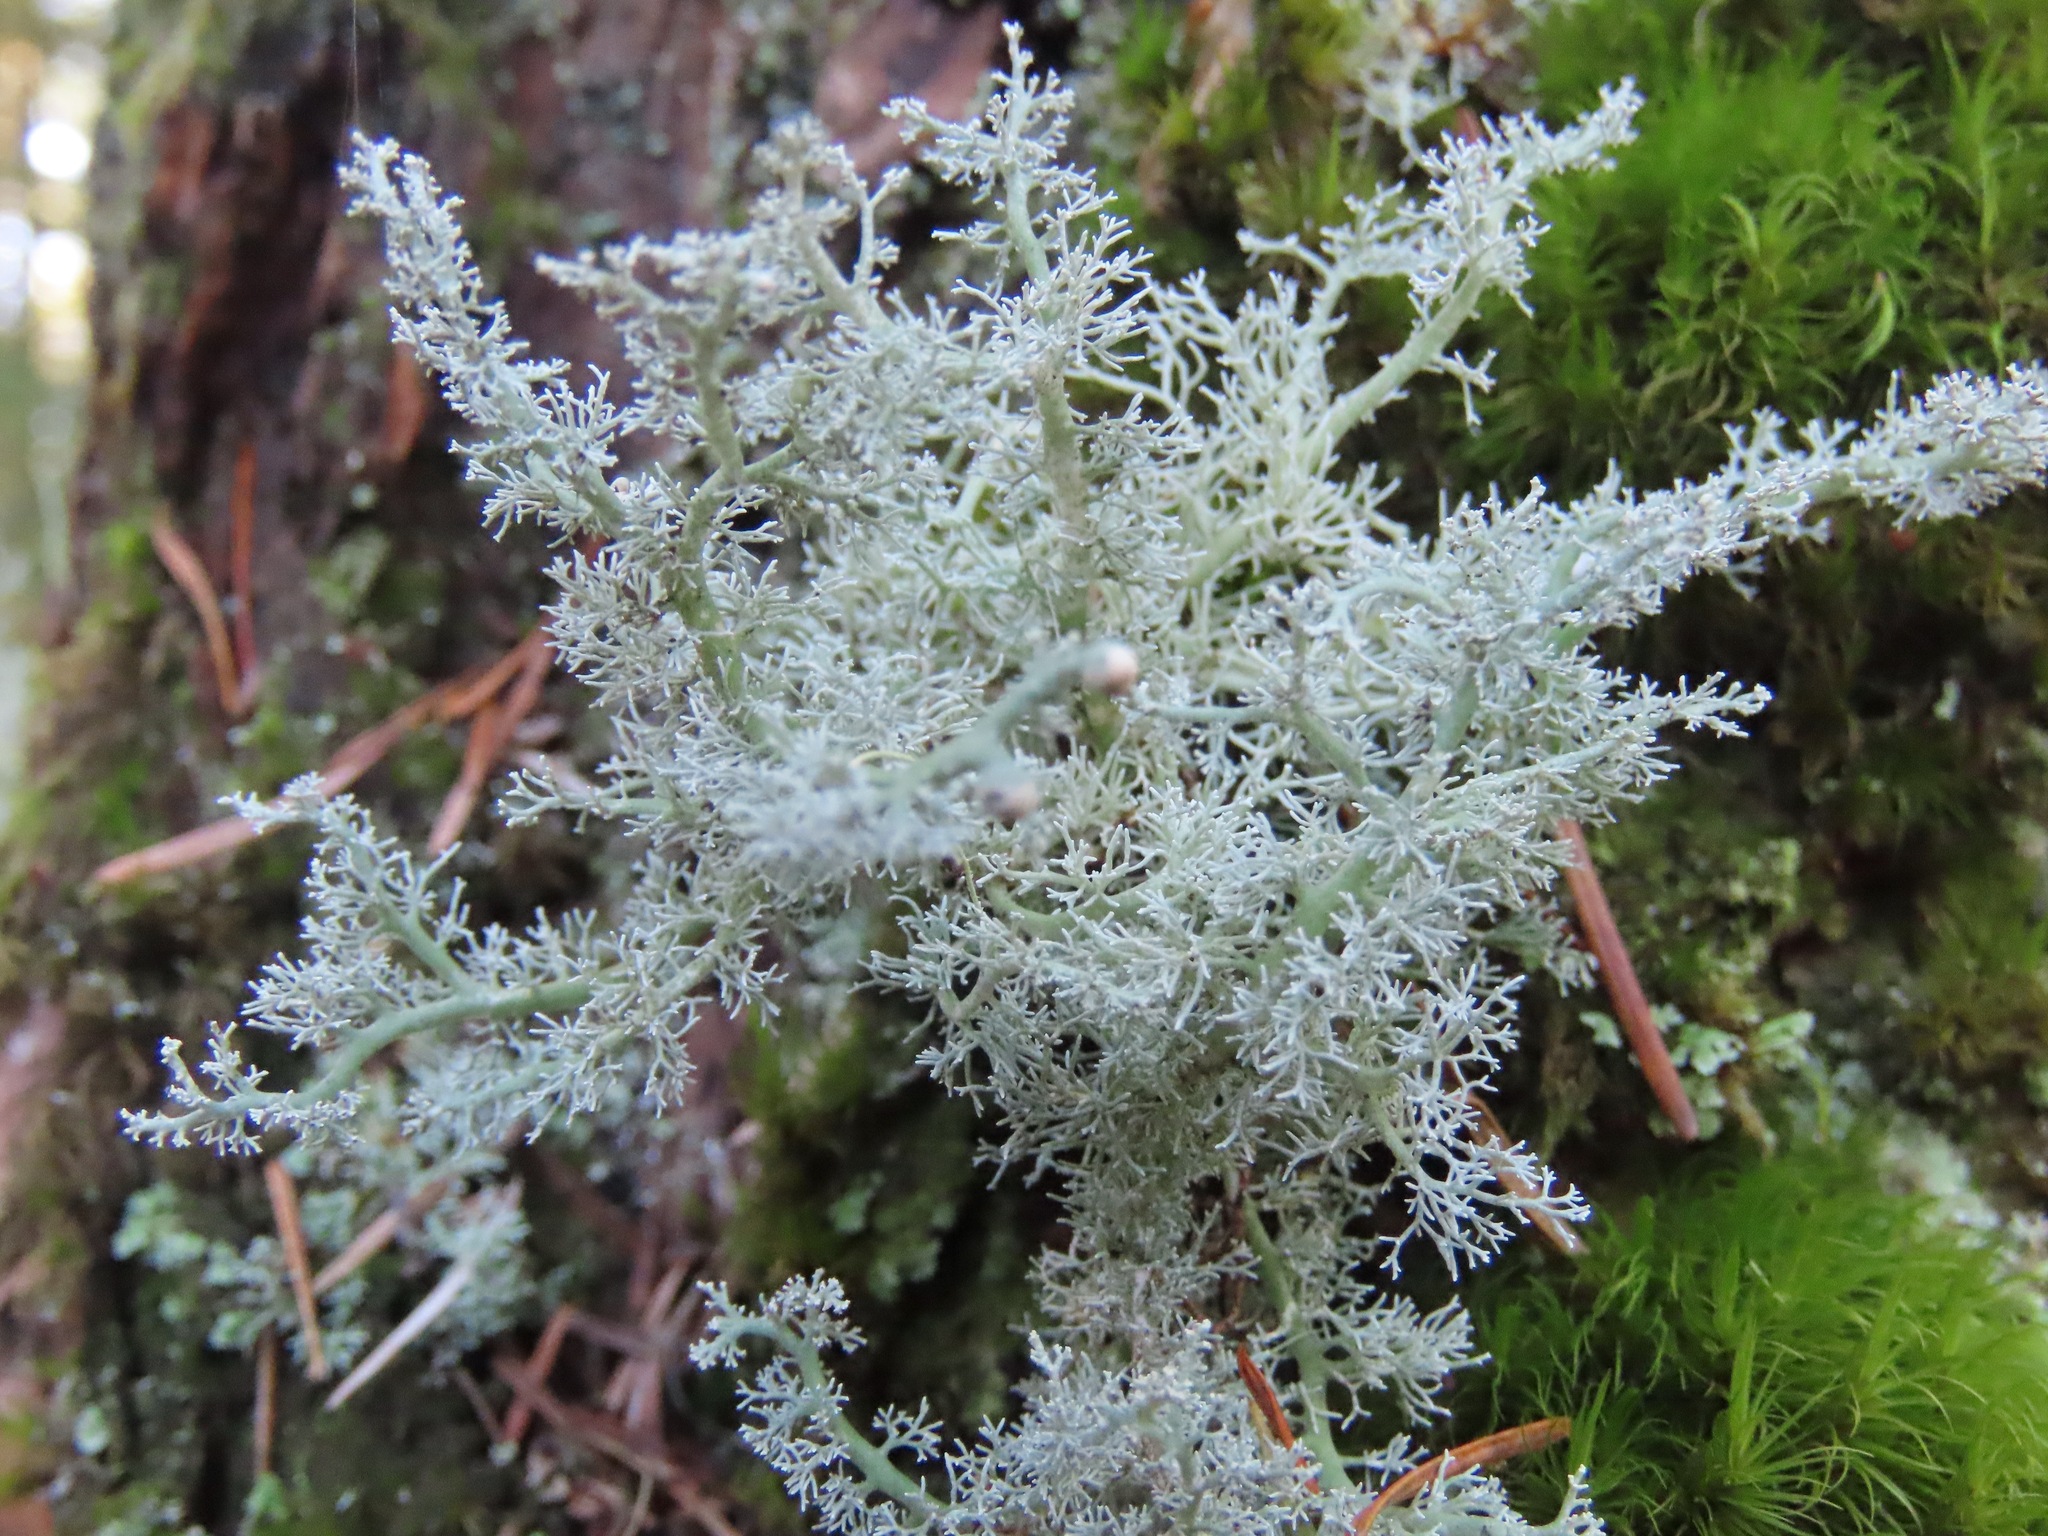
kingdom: Fungi
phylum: Ascomycota
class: Lecanoromycetes
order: Lecanorales
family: Sphaerophoraceae
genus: Sphaerophorus
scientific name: Sphaerophorus globosus
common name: Globe ball lichen
